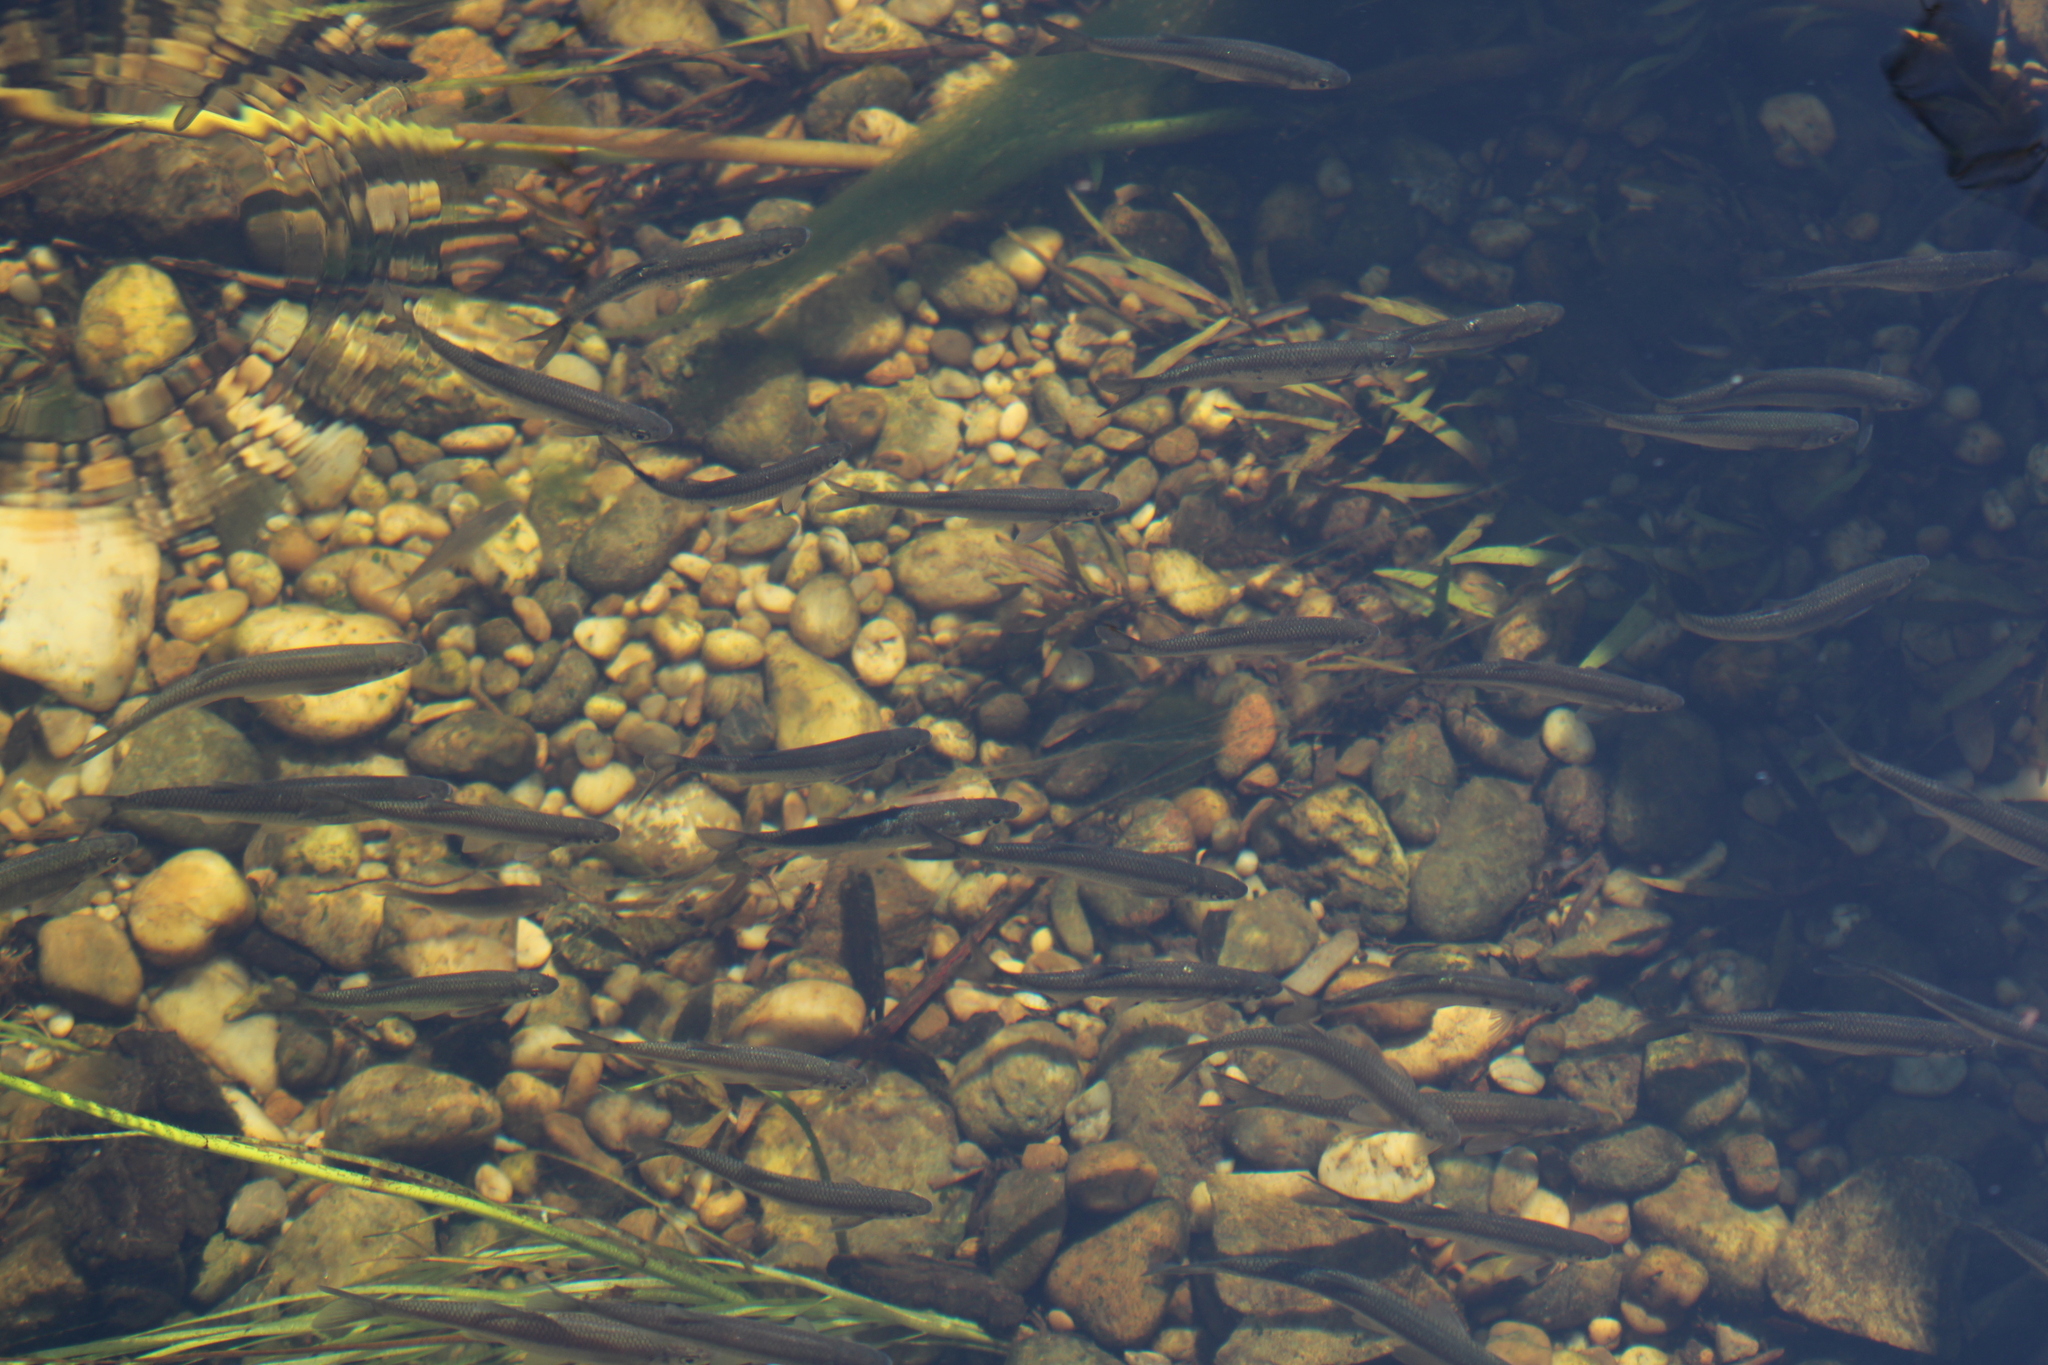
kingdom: Animalia
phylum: Chordata
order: Cypriniformes
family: Cyprinidae
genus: Alburnus
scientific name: Alburnus alburnus
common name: Bleak
